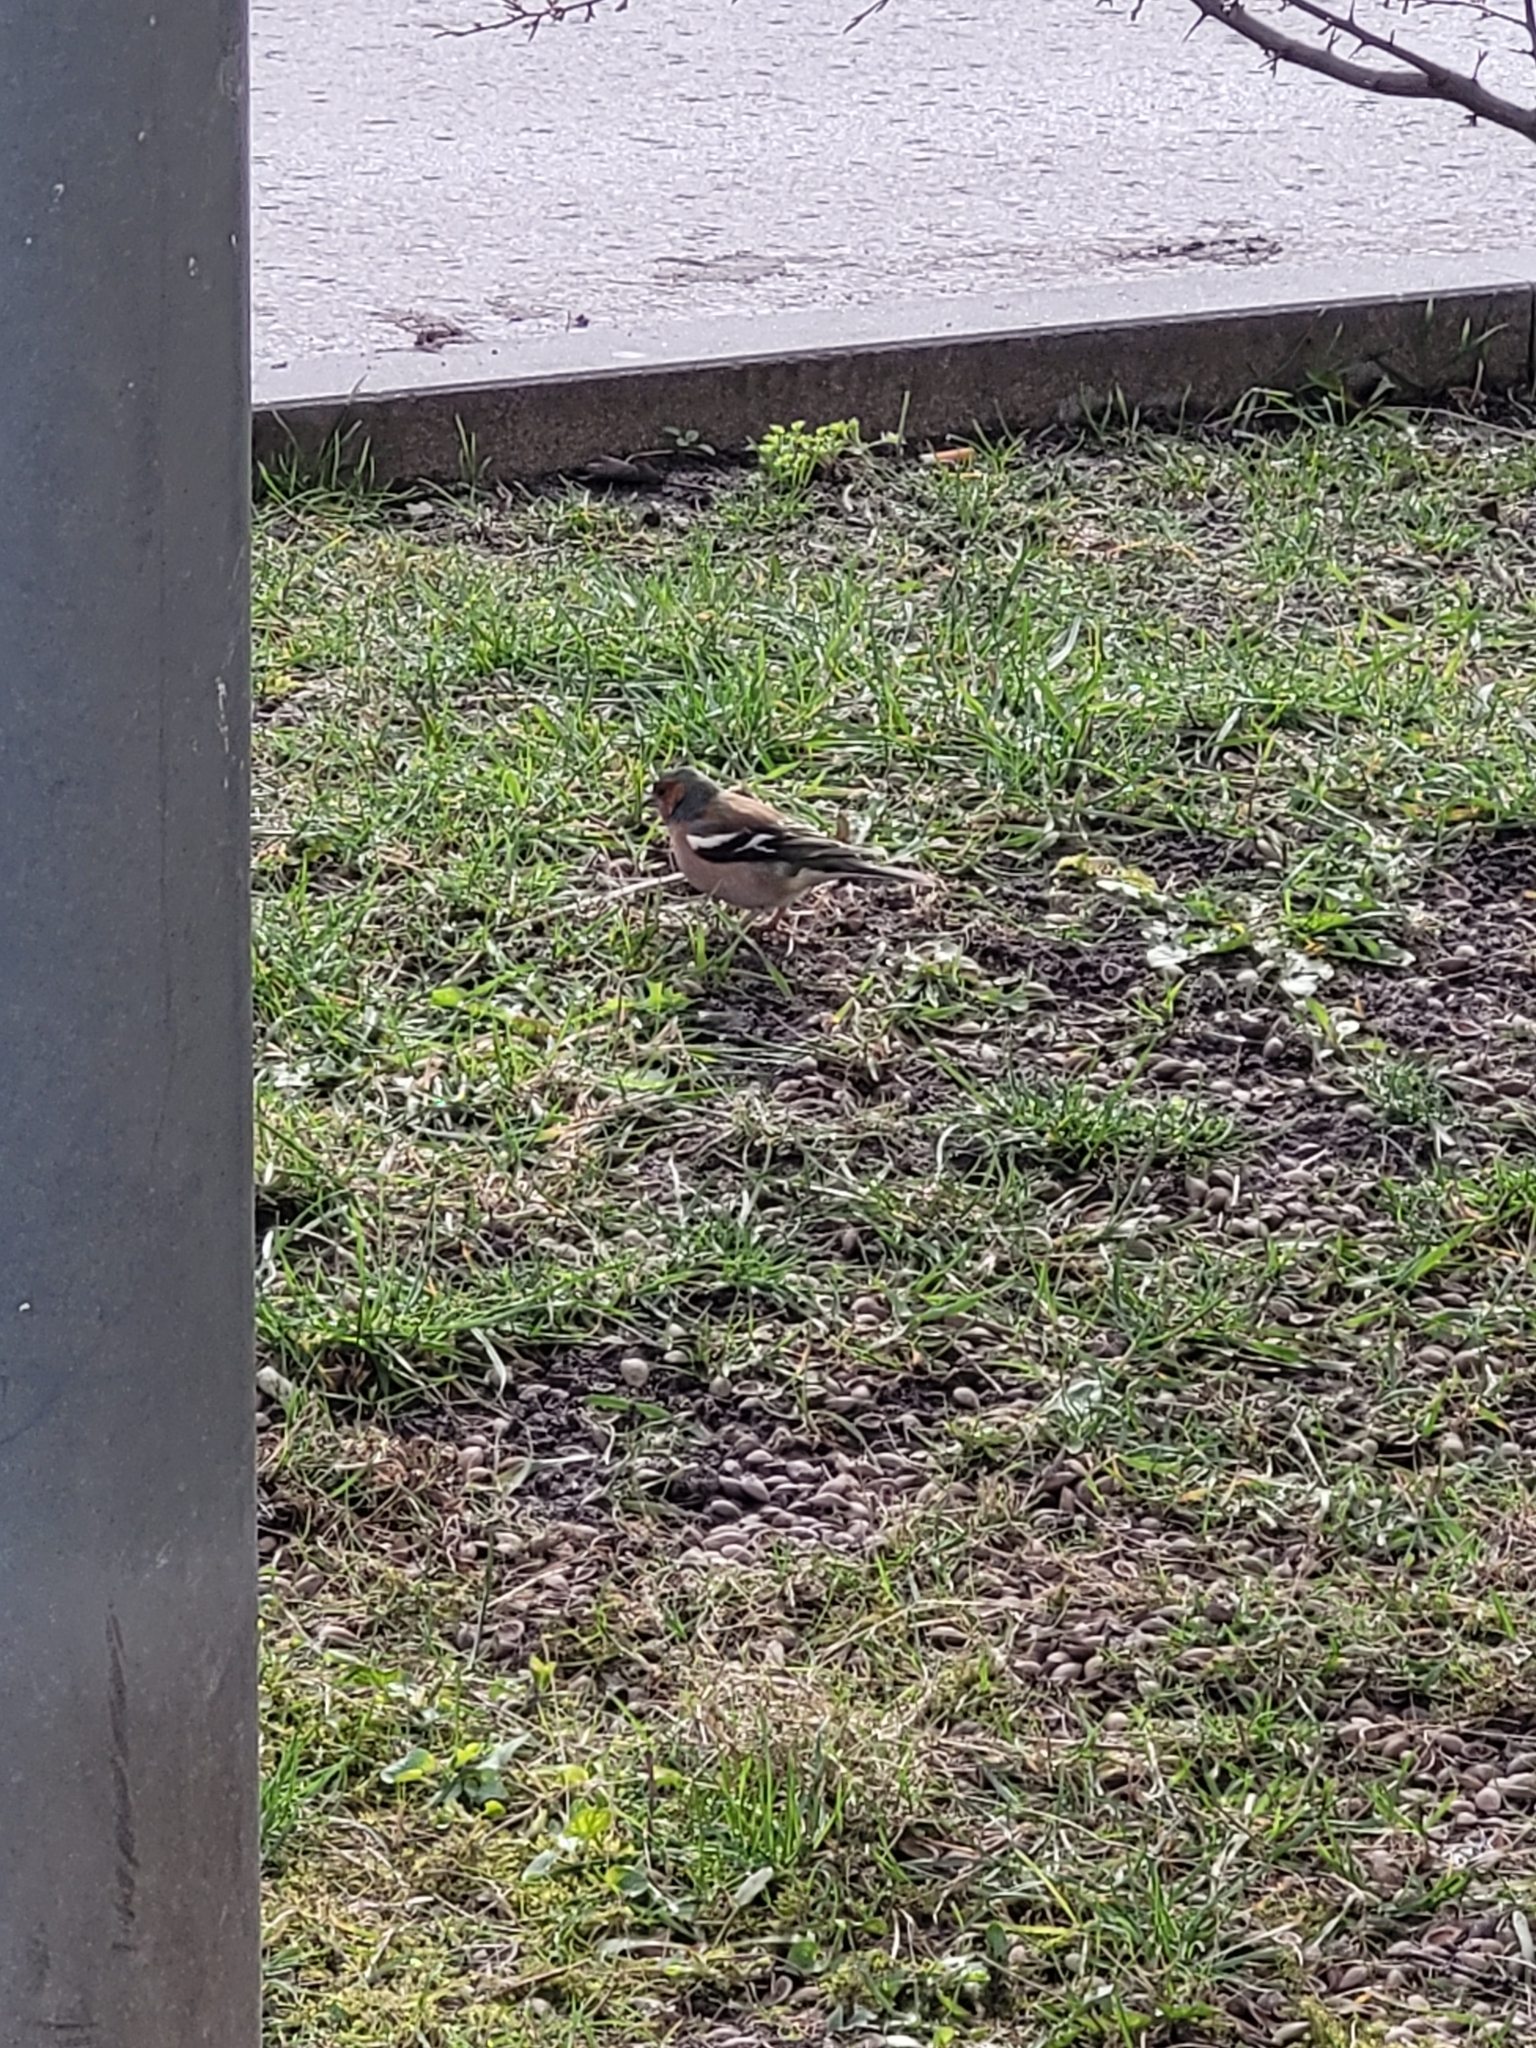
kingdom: Animalia
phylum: Chordata
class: Aves
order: Passeriformes
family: Fringillidae
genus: Fringilla
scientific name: Fringilla coelebs
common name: Common chaffinch
